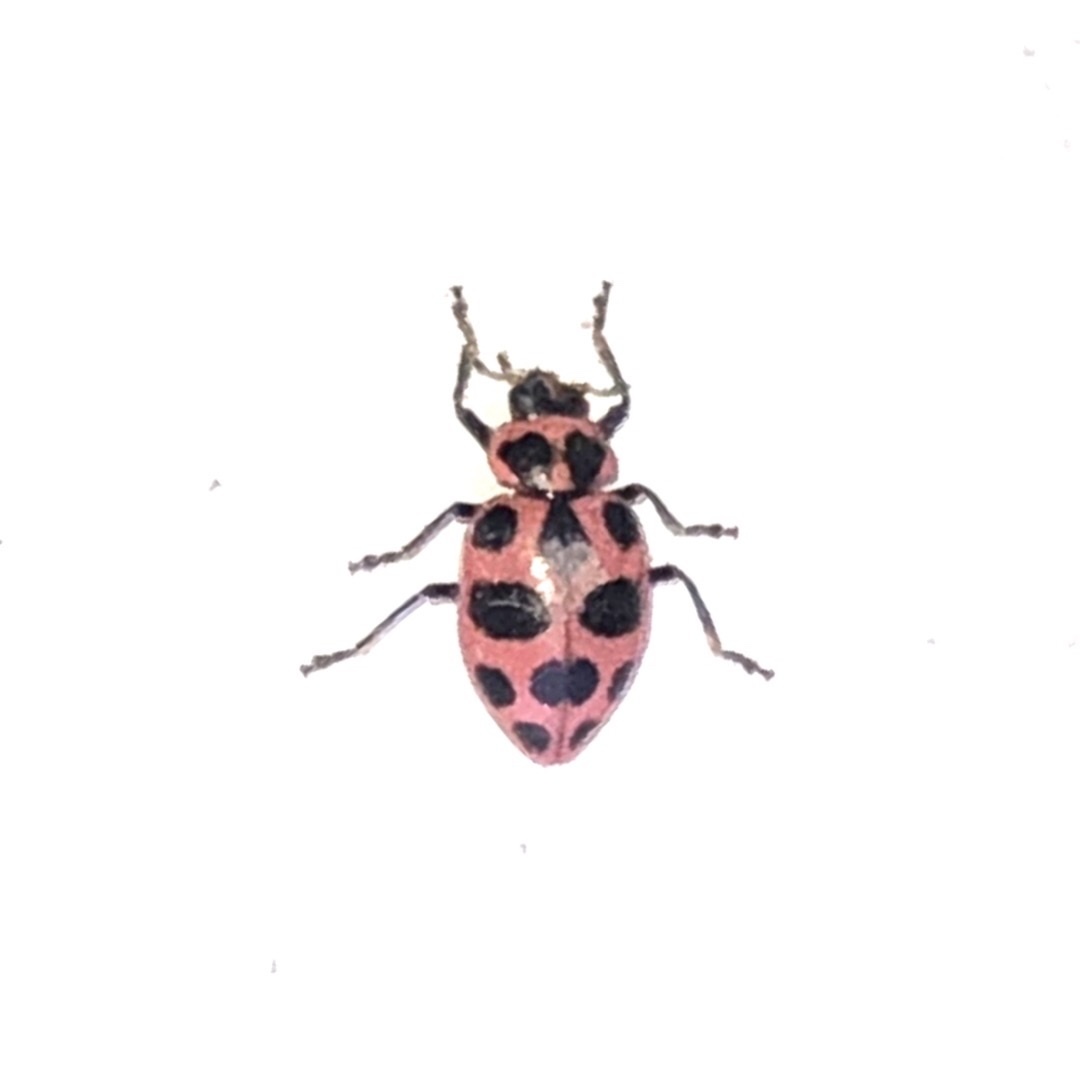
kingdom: Animalia
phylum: Arthropoda
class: Insecta
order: Coleoptera
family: Coccinellidae
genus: Coleomegilla
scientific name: Coleomegilla maculata
